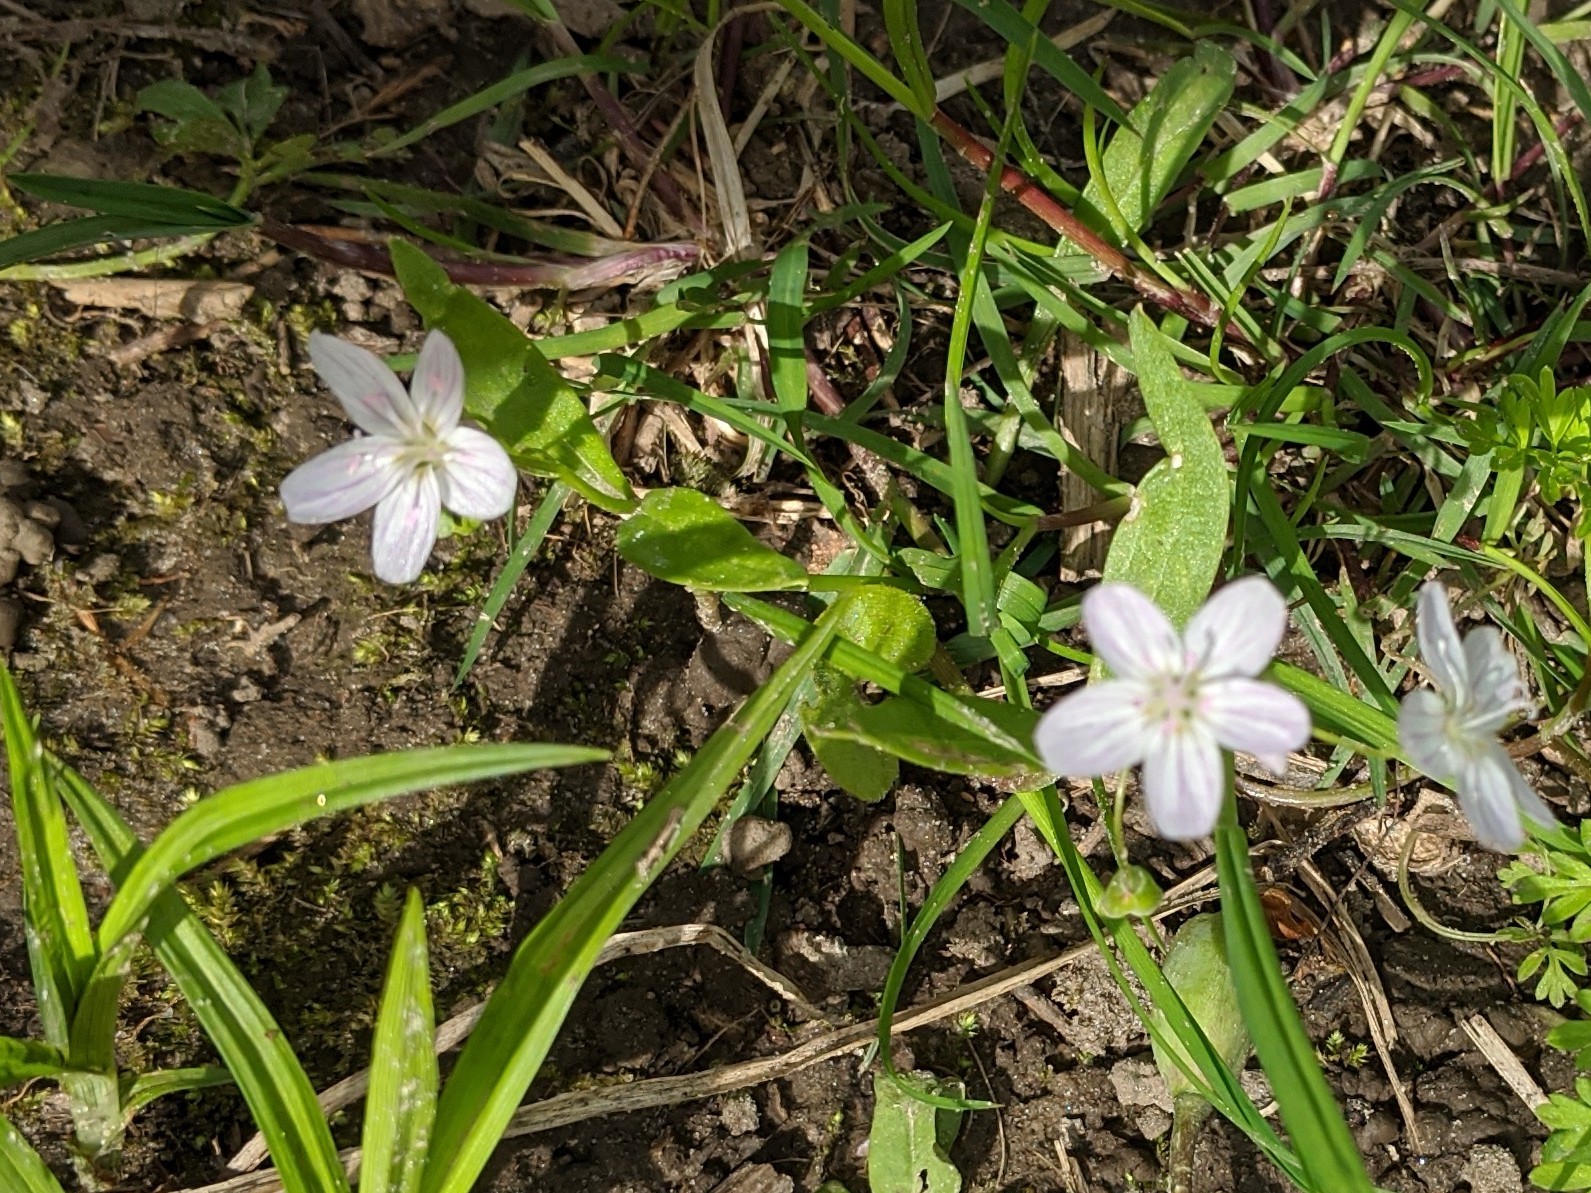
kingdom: Plantae
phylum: Tracheophyta
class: Magnoliopsida
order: Caryophyllales
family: Montiaceae
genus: Claytonia
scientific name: Claytonia virginica
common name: Virginia springbeauty
